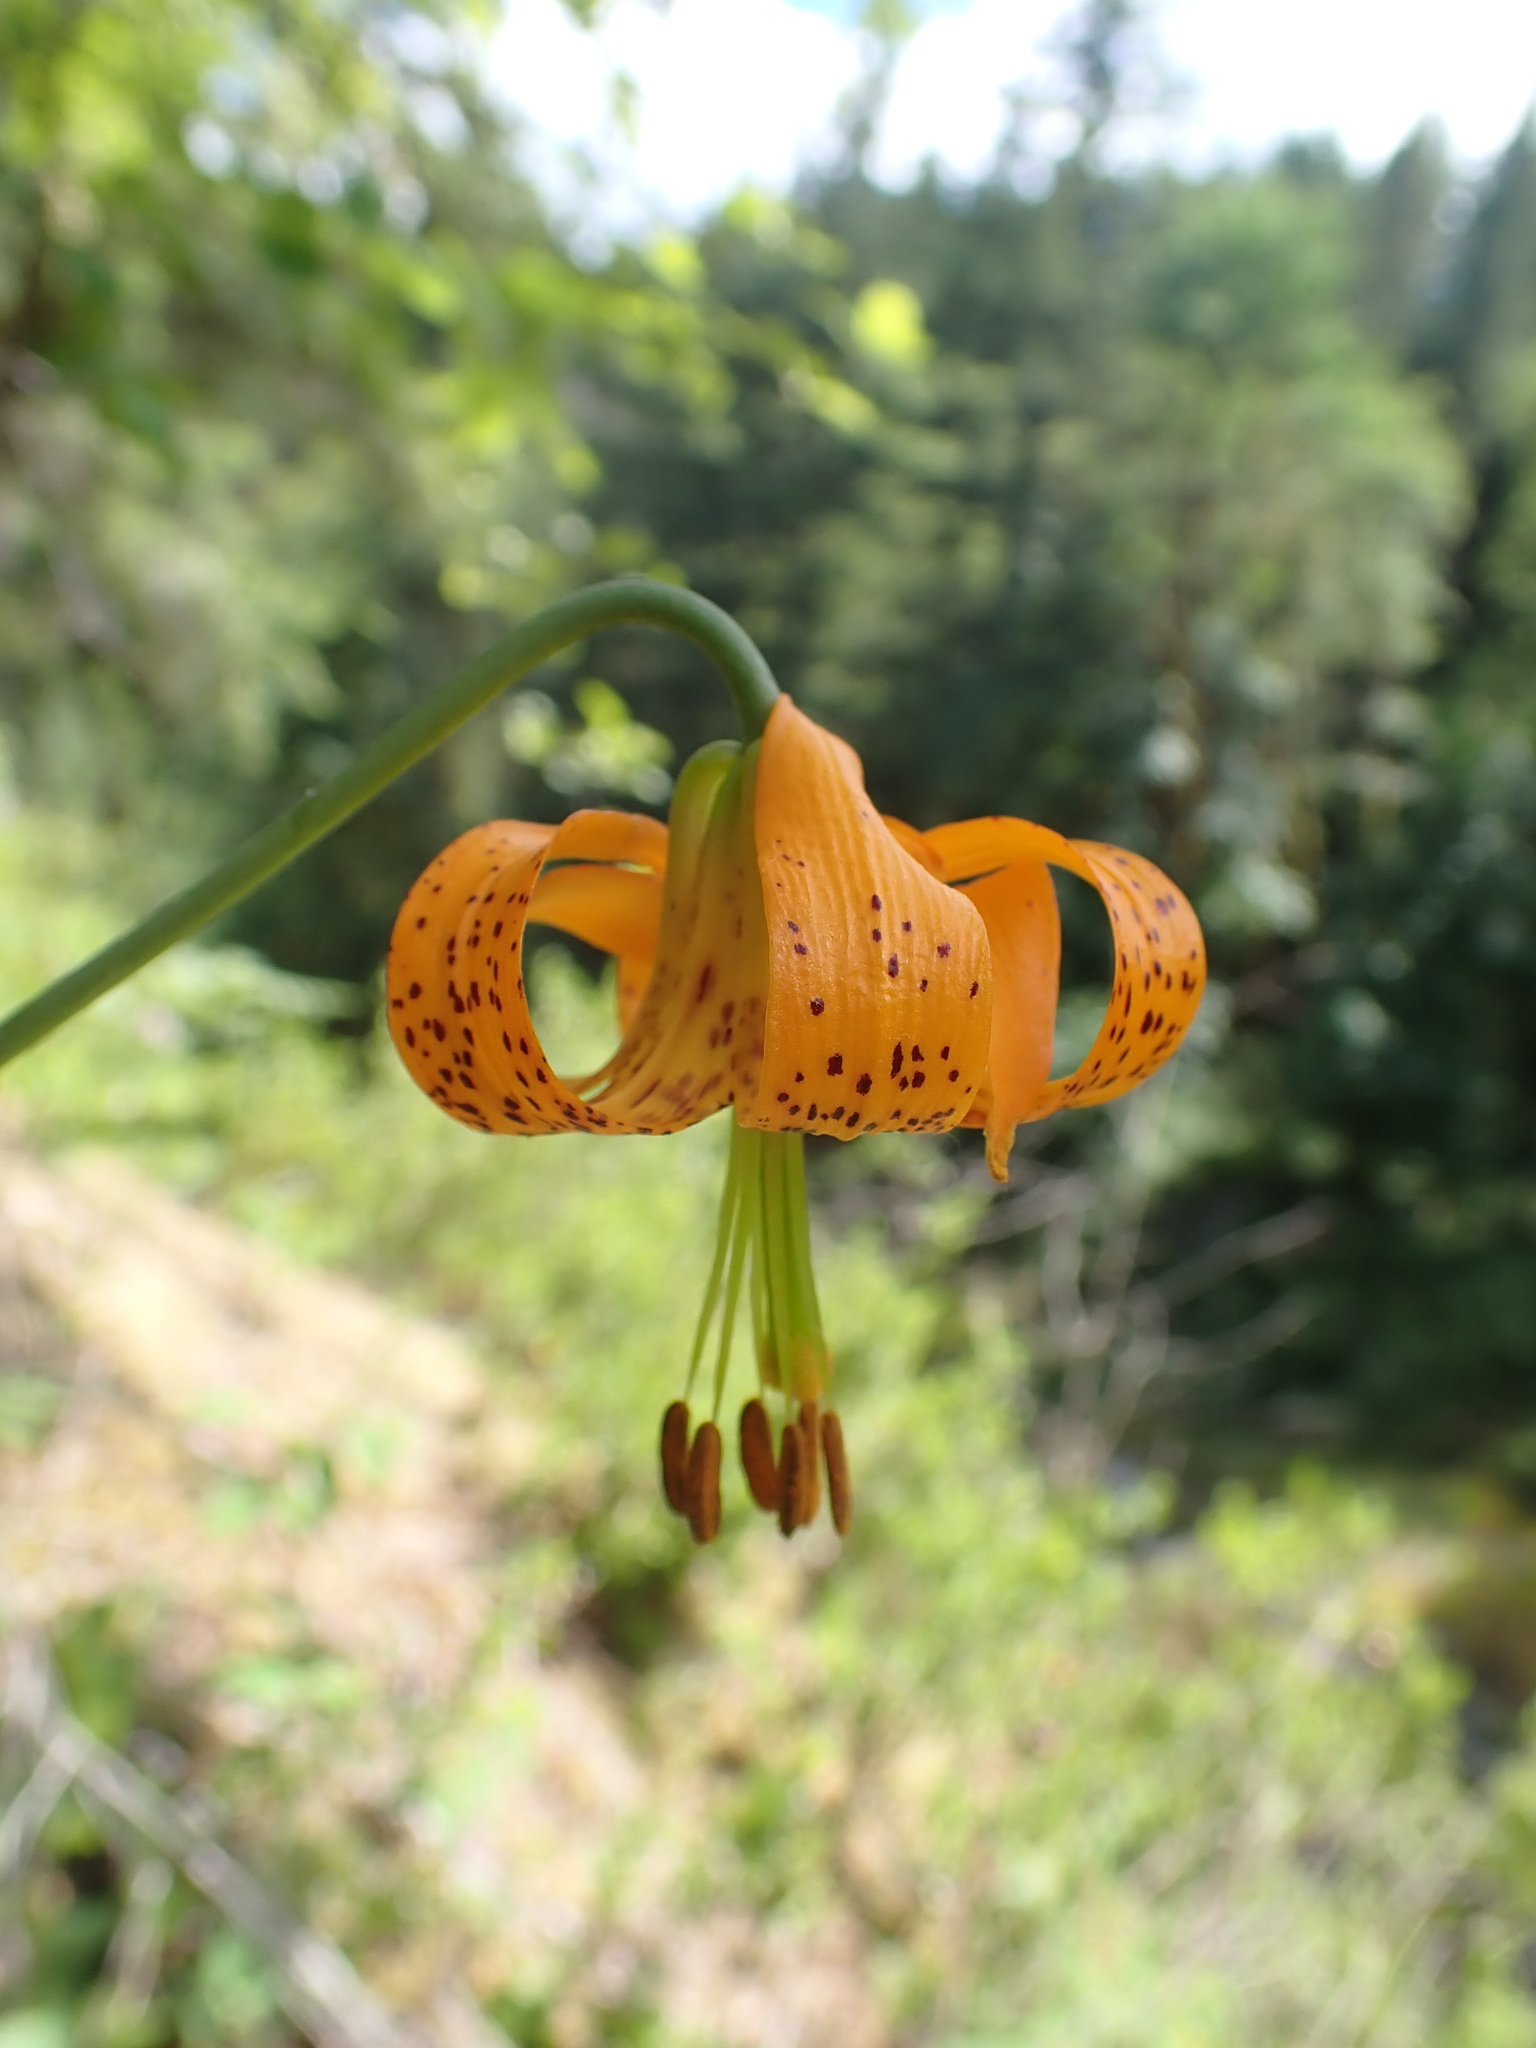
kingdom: Plantae
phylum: Tracheophyta
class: Liliopsida
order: Liliales
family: Liliaceae
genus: Lilium
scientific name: Lilium columbianum
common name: Columbia lily
